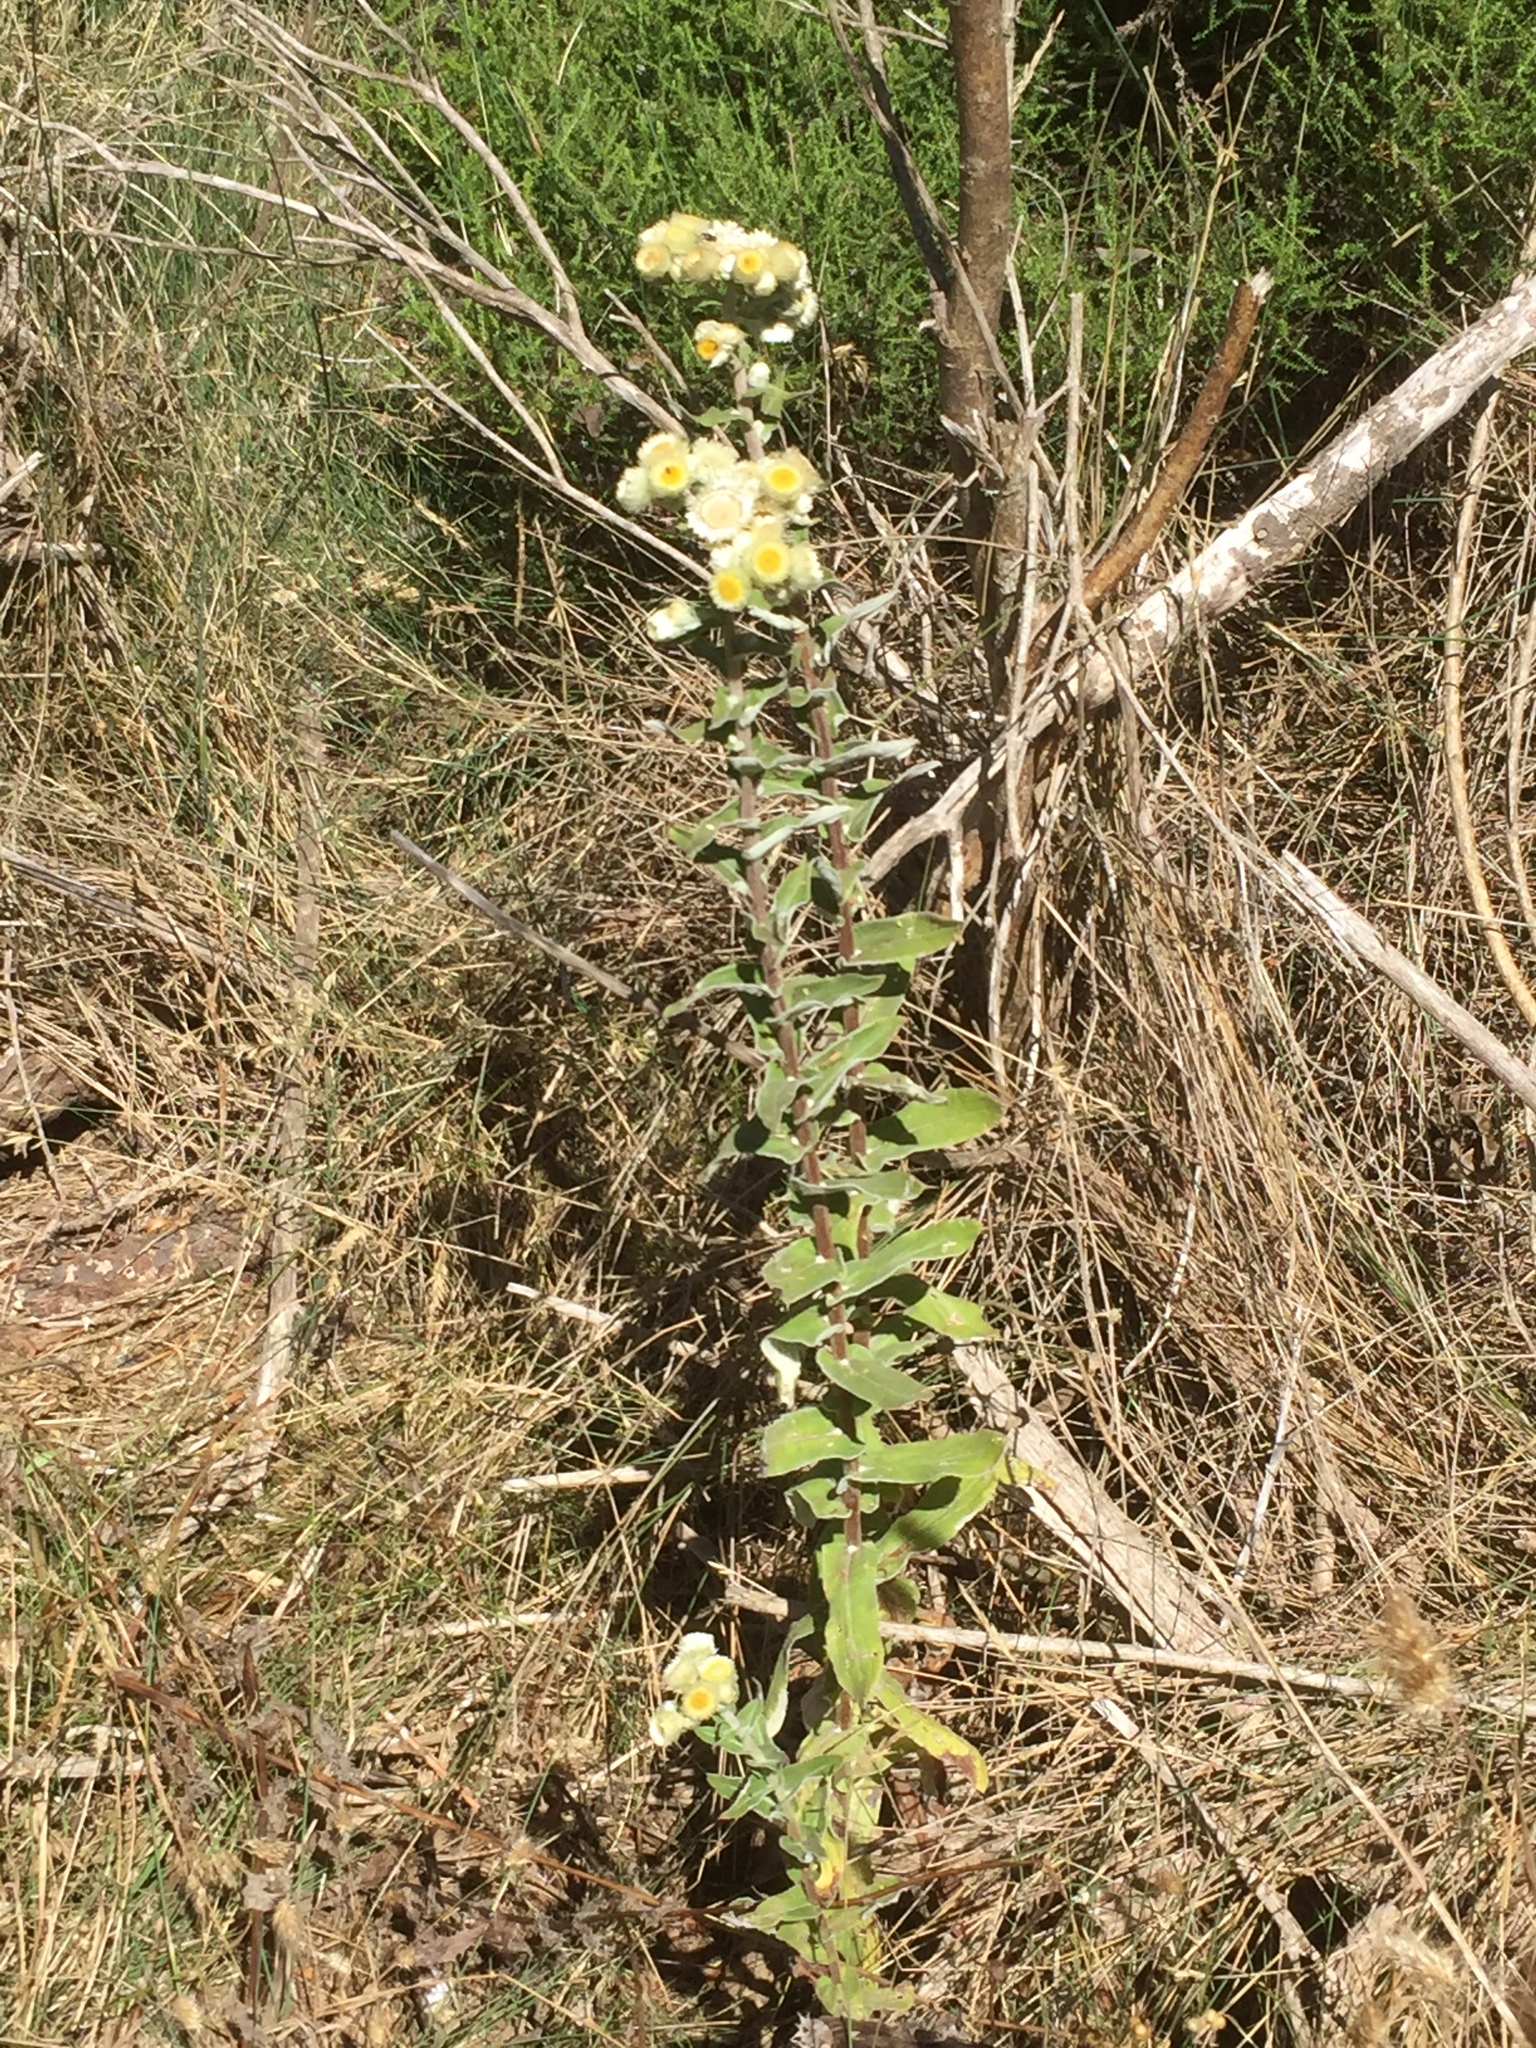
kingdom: Plantae
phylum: Tracheophyta
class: Magnoliopsida
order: Asterales
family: Asteraceae
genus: Helichrysum
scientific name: Helichrysum foetidum
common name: Stinking everlasting
